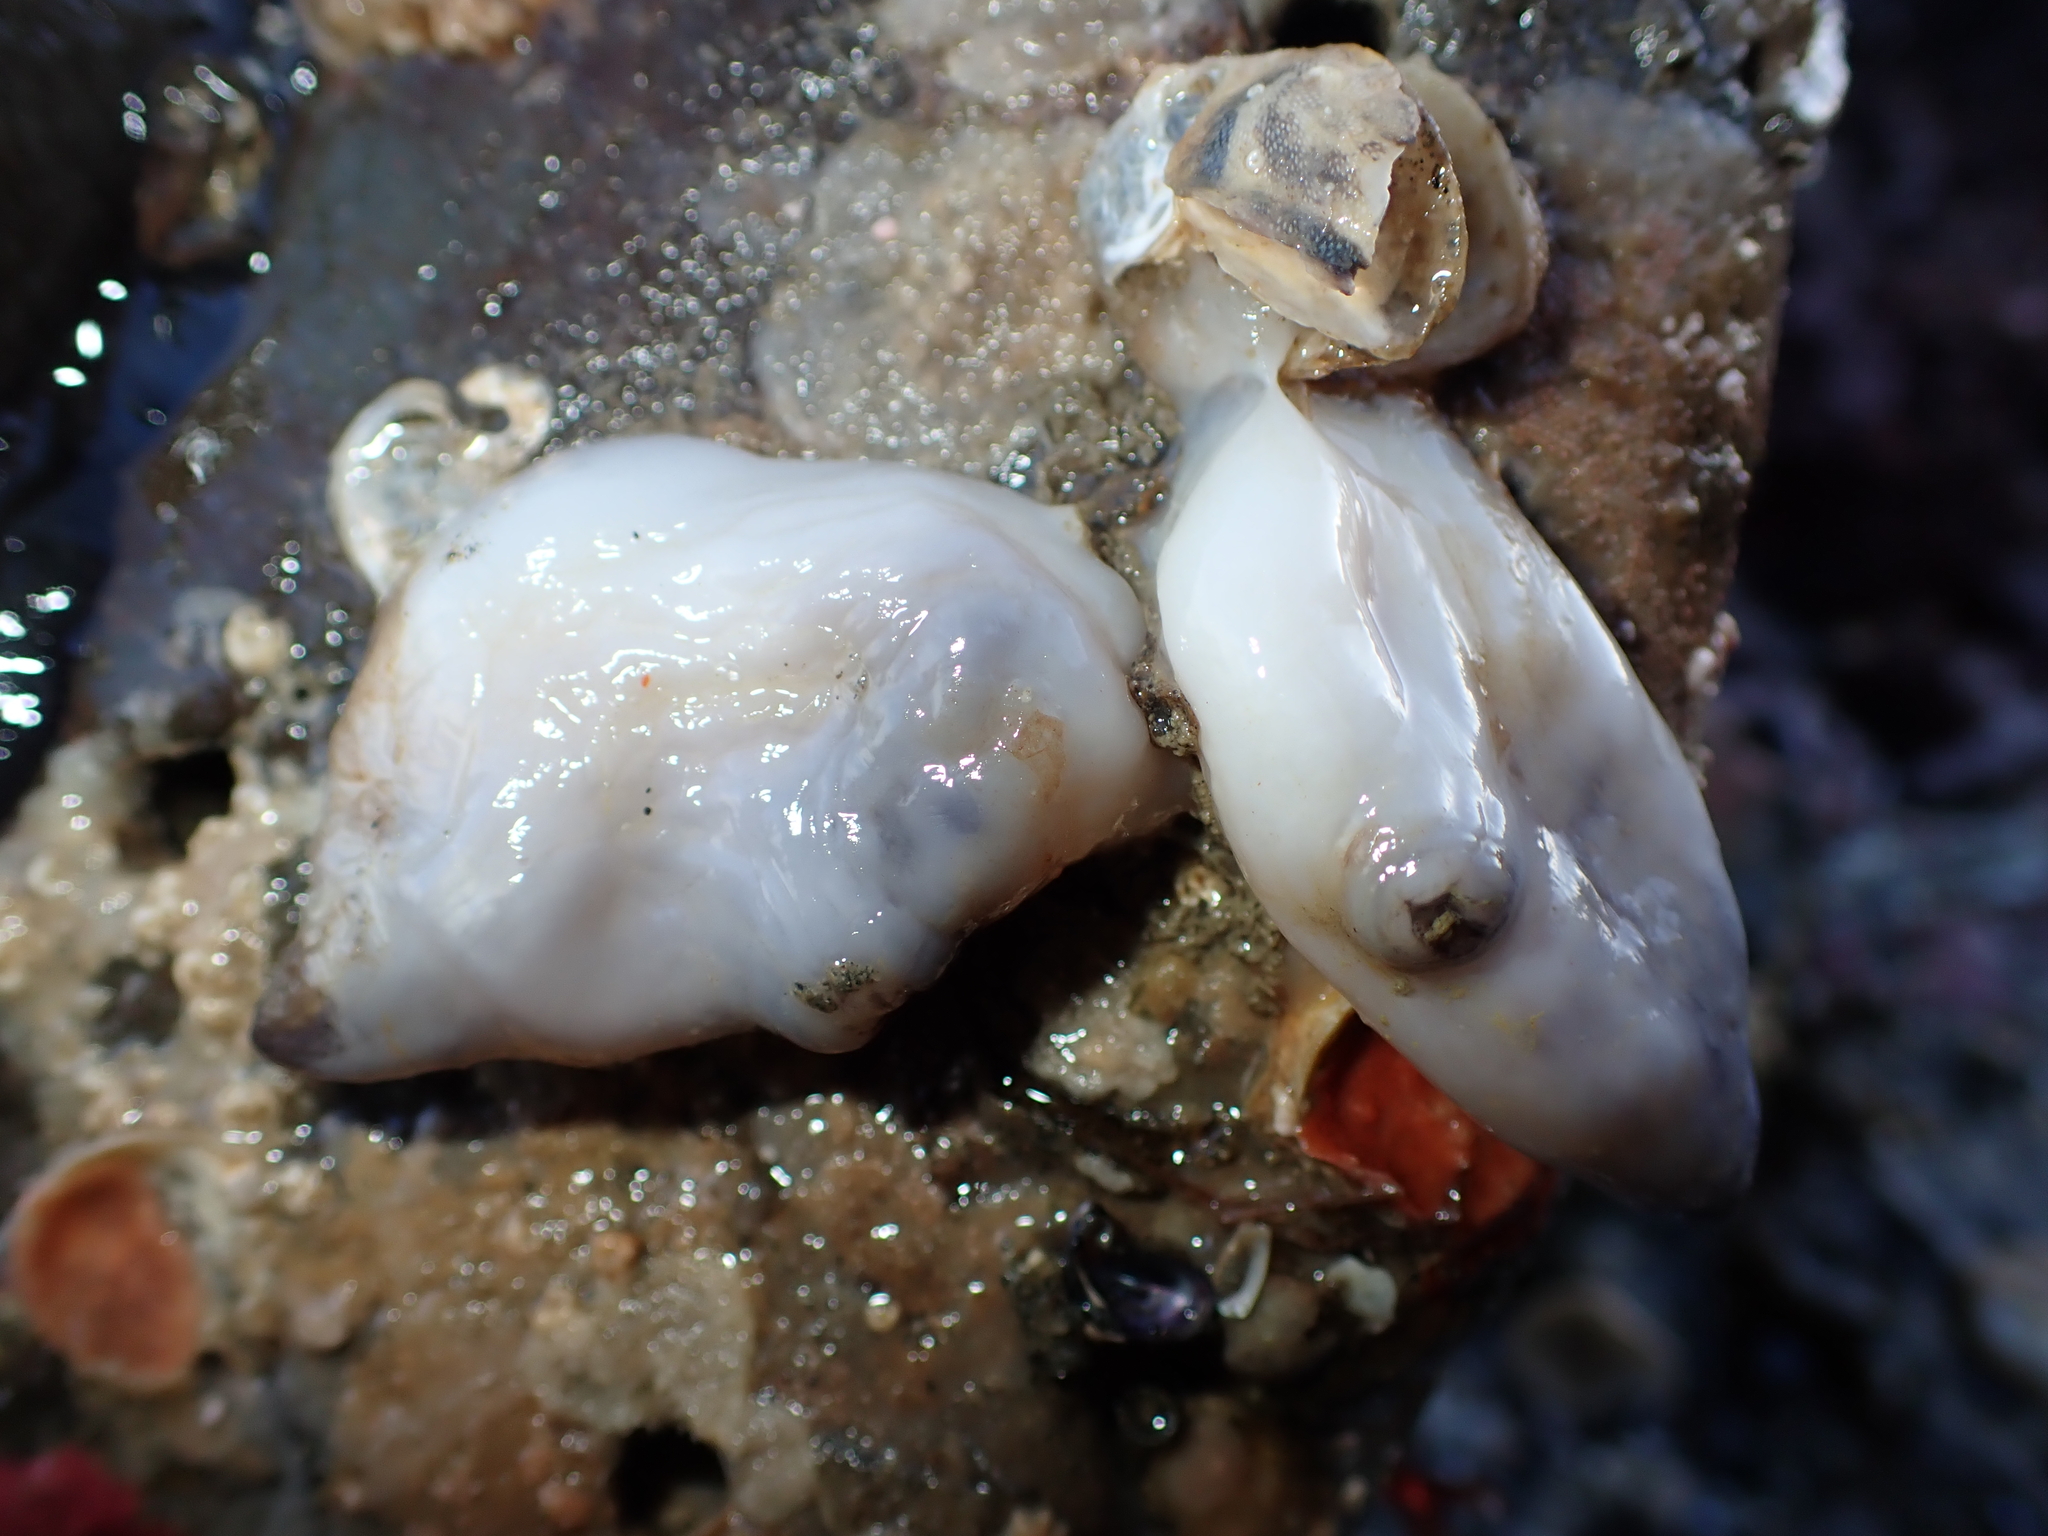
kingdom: Animalia
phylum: Chordata
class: Ascidiacea
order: Stolidobranchia
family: Styelidae
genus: Asterocarpa
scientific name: Asterocarpa coerulea
